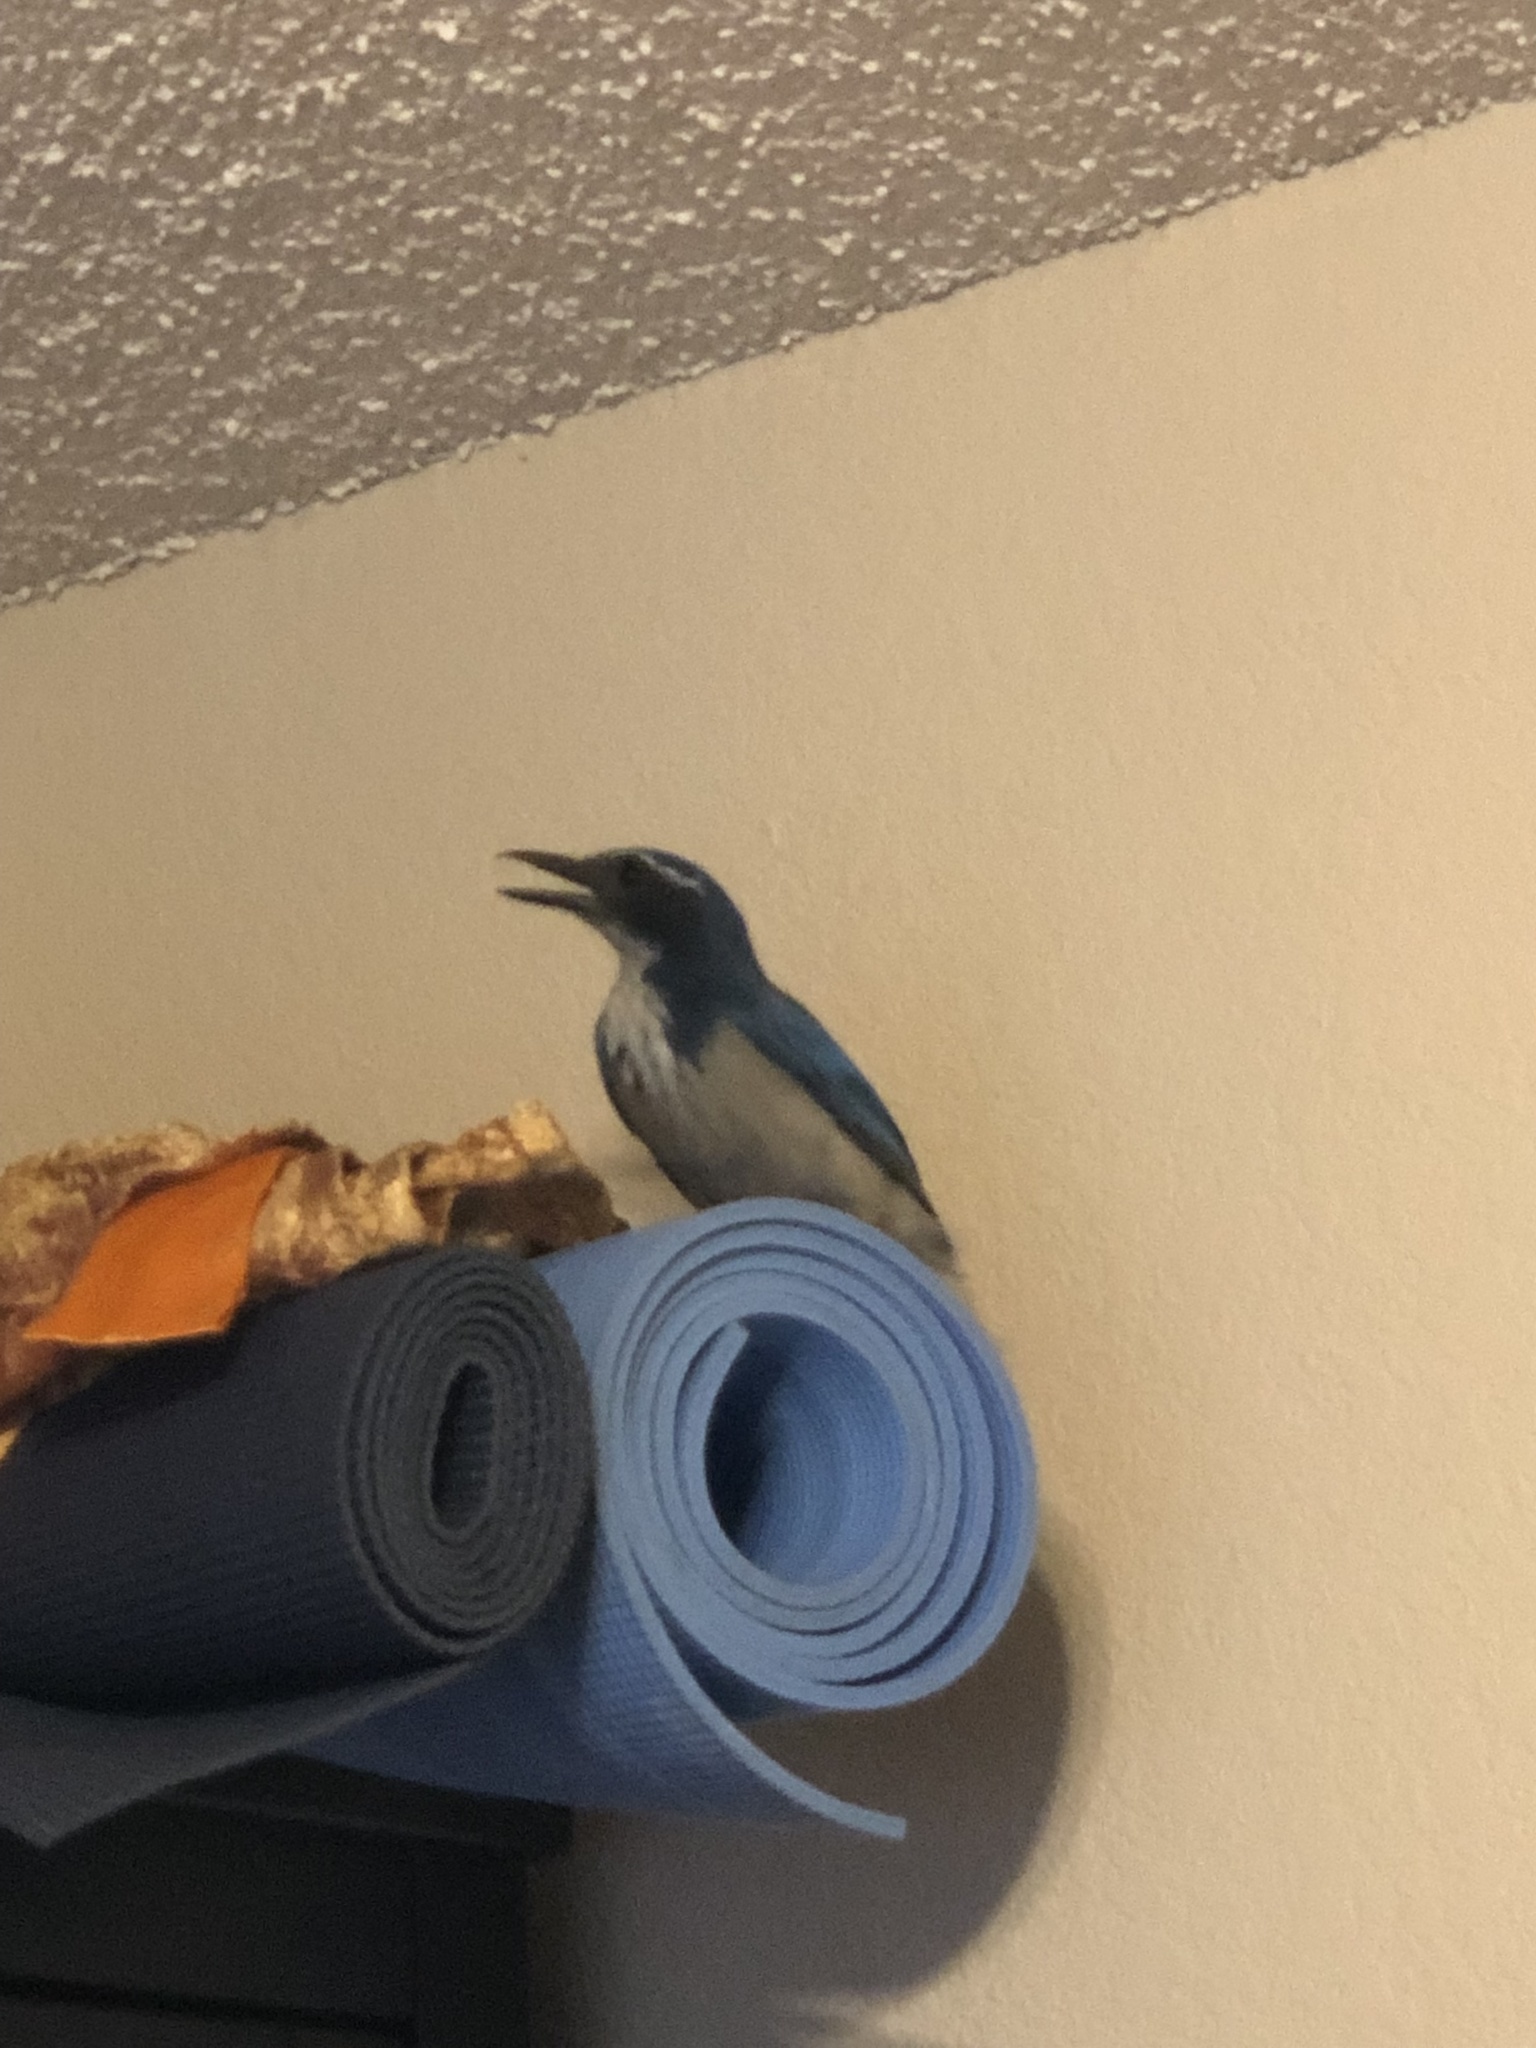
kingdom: Animalia
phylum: Chordata
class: Aves
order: Passeriformes
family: Corvidae
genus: Aphelocoma
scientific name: Aphelocoma californica
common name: California scrub-jay
